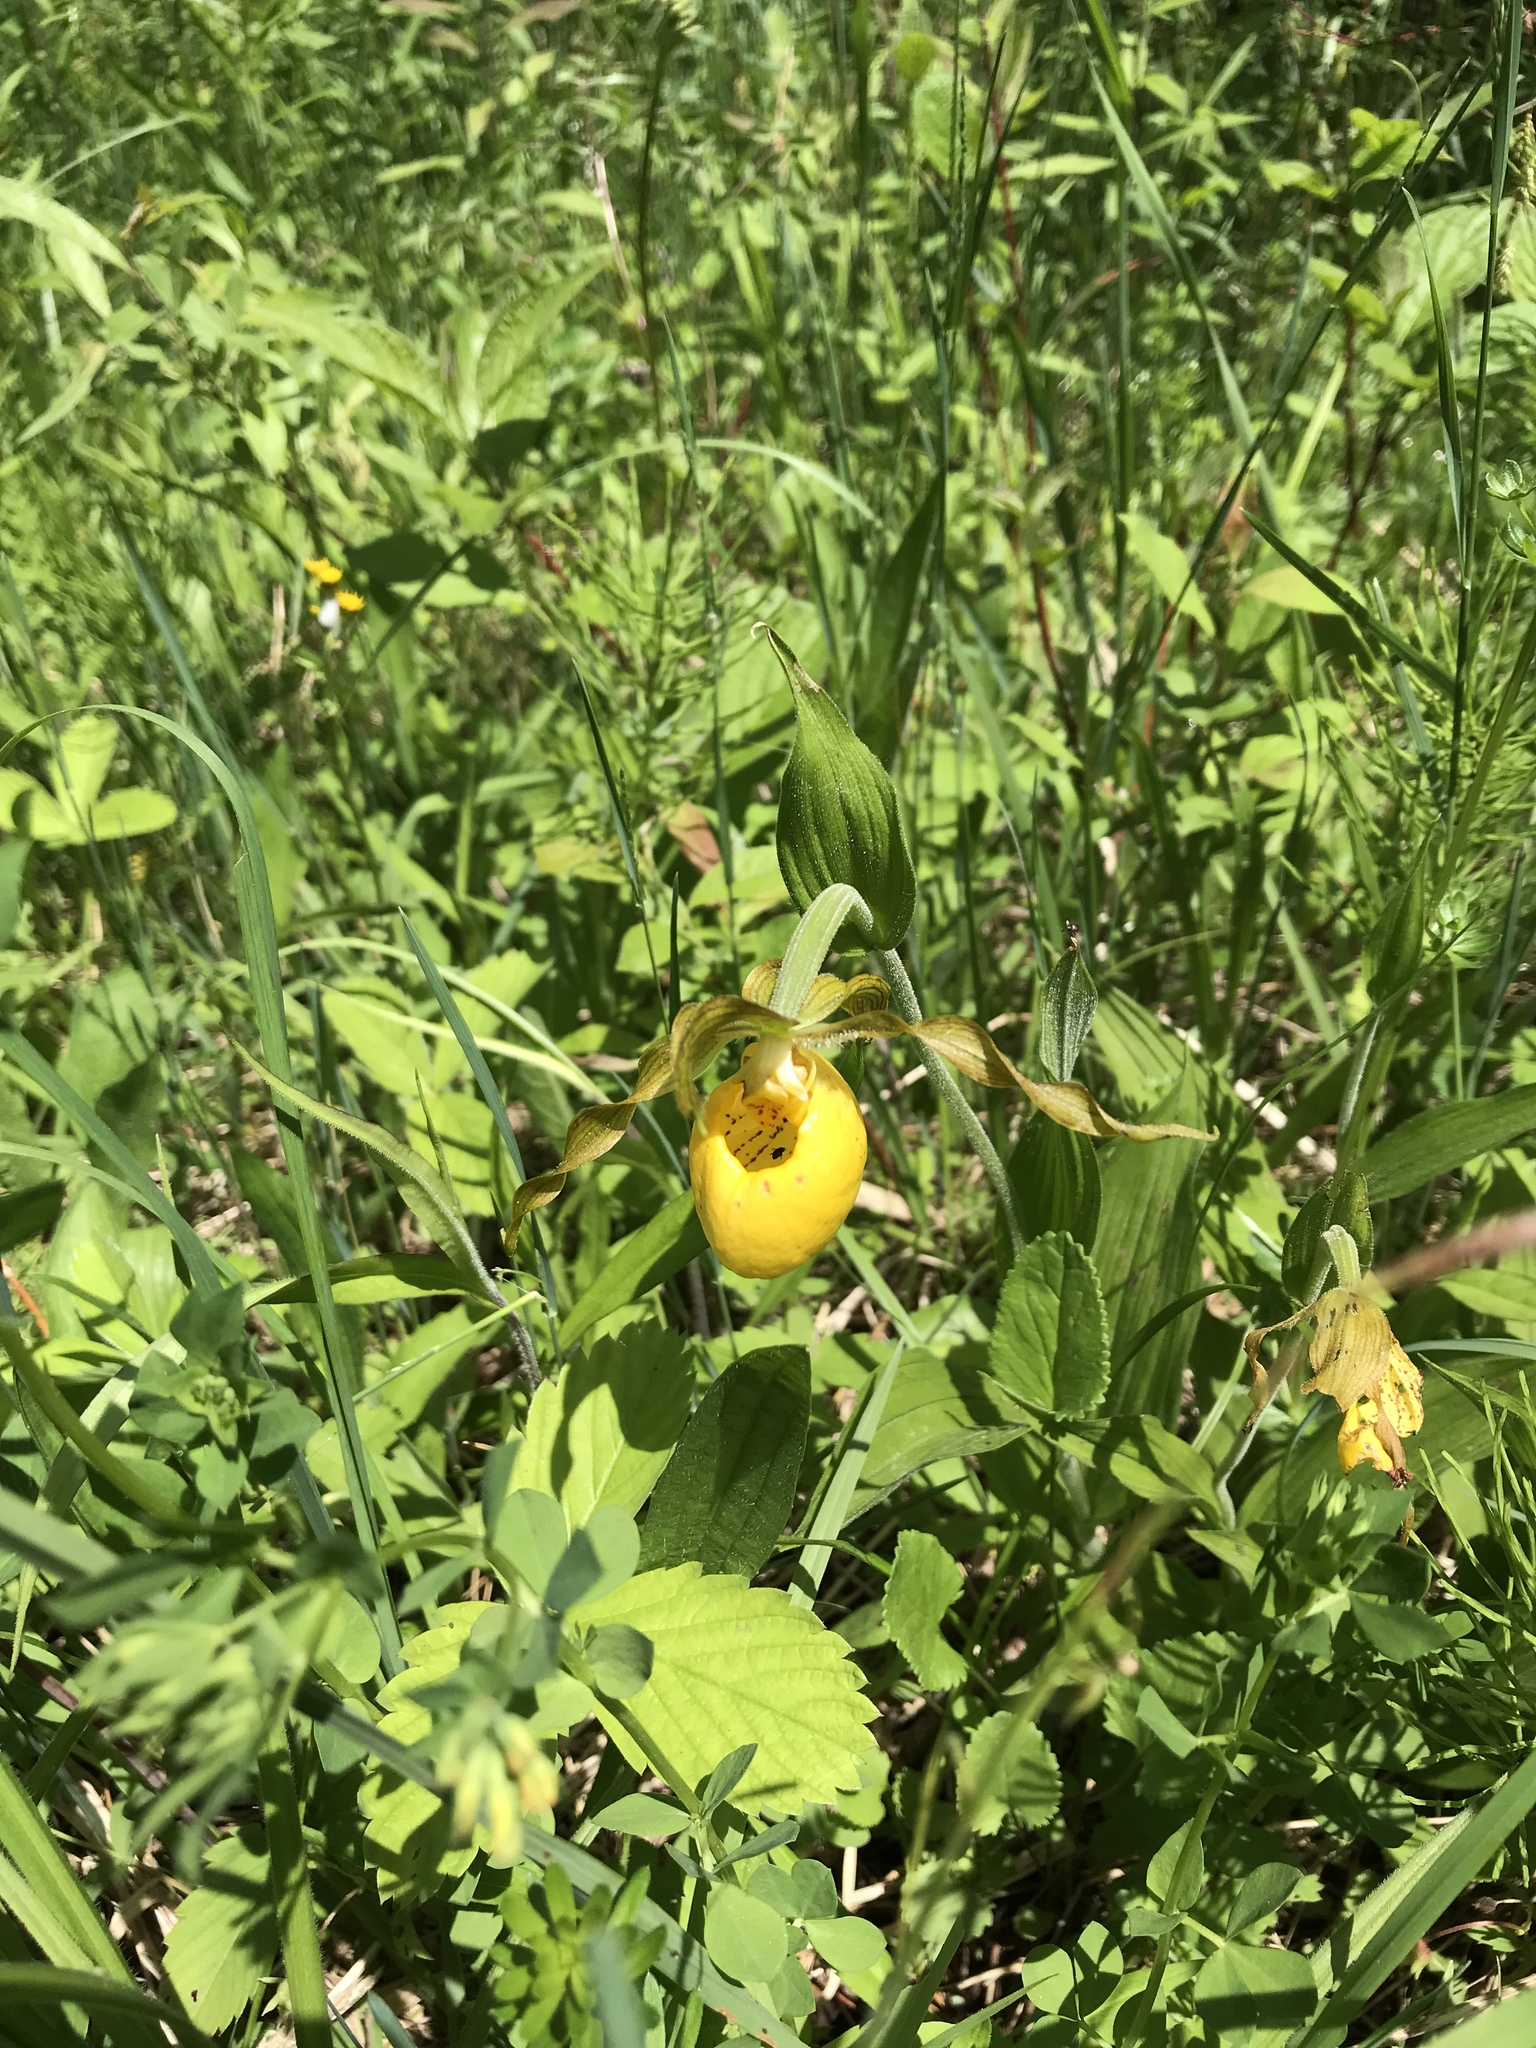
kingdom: Plantae
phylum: Tracheophyta
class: Liliopsida
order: Asparagales
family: Orchidaceae
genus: Cypripedium
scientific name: Cypripedium parviflorum
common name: American yellow lady's-slipper
